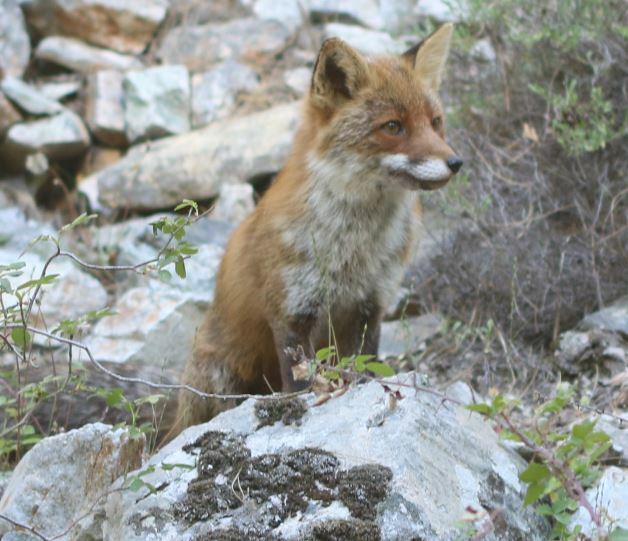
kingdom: Animalia
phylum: Chordata
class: Mammalia
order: Carnivora
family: Canidae
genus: Vulpes
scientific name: Vulpes vulpes
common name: Red fox
